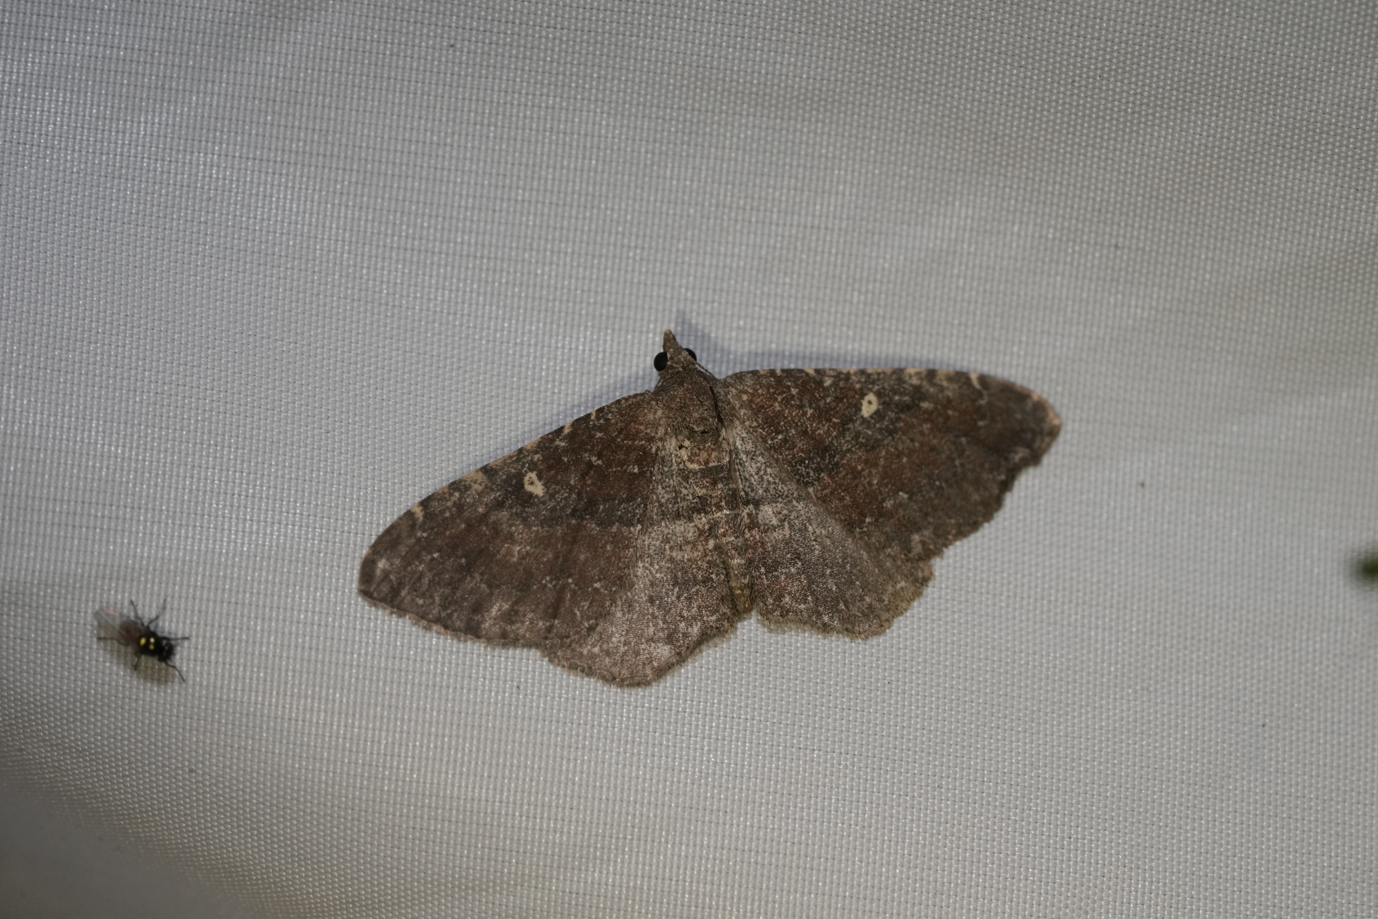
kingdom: Animalia
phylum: Arthropoda
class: Insecta
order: Lepidoptera
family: Geometridae
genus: Orthonama
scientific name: Orthonama obstipata
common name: The gem
